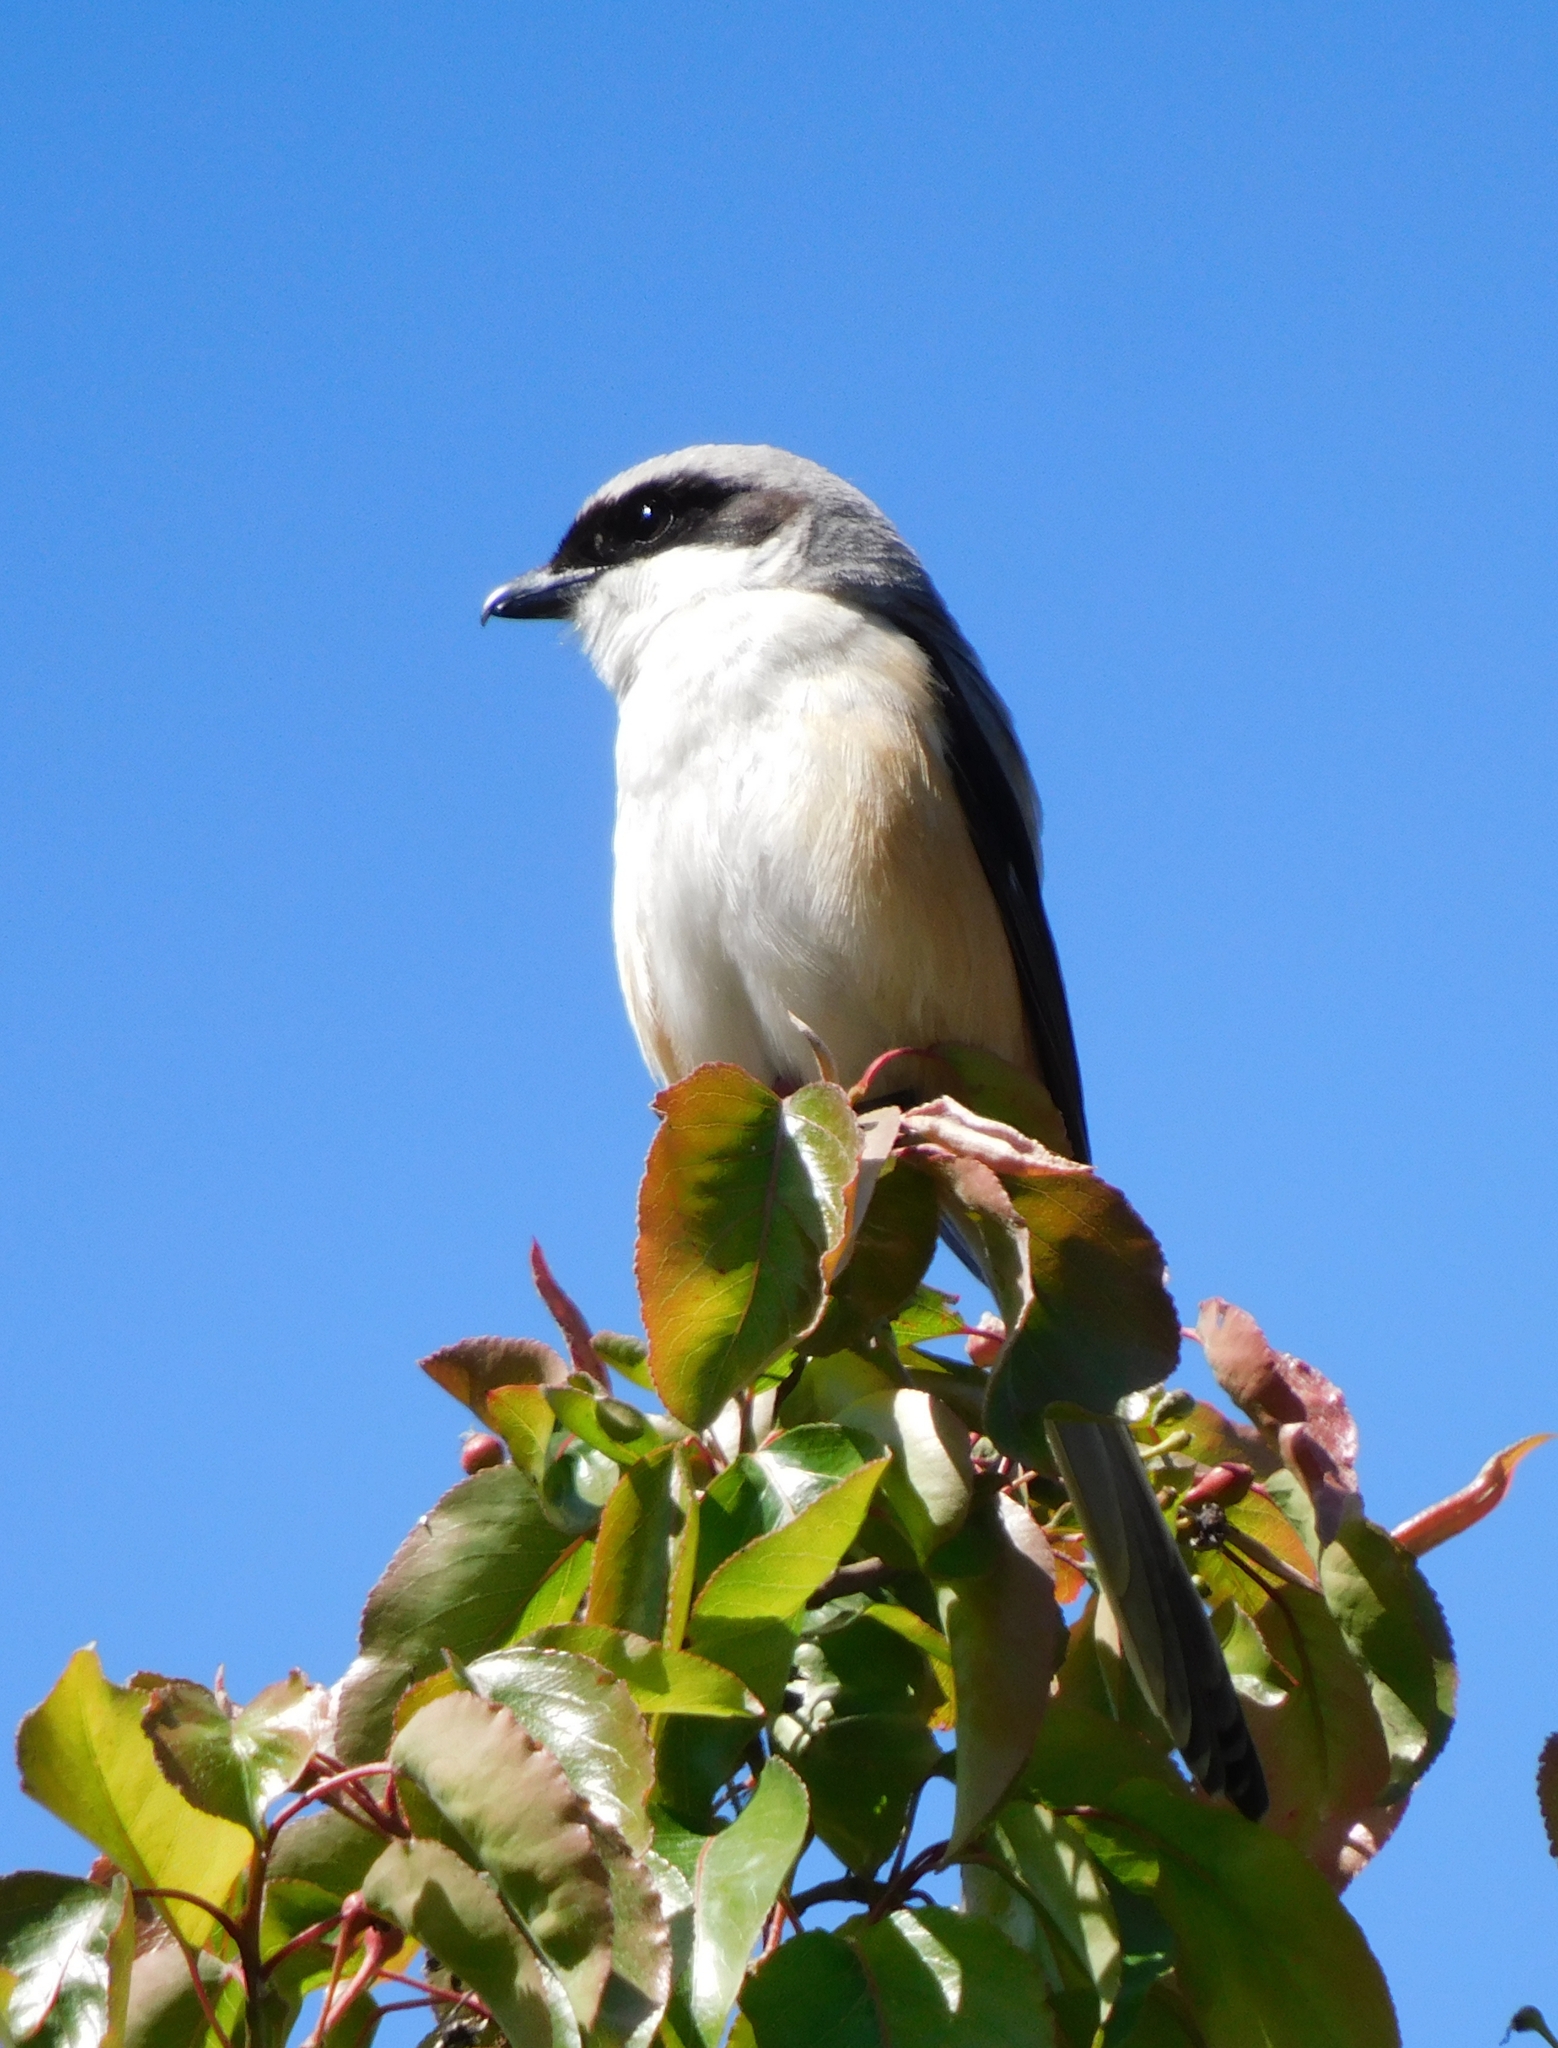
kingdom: Animalia
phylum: Chordata
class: Aves
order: Passeriformes
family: Laniidae
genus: Lanius
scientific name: Lanius schach
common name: Long-tailed shrike
